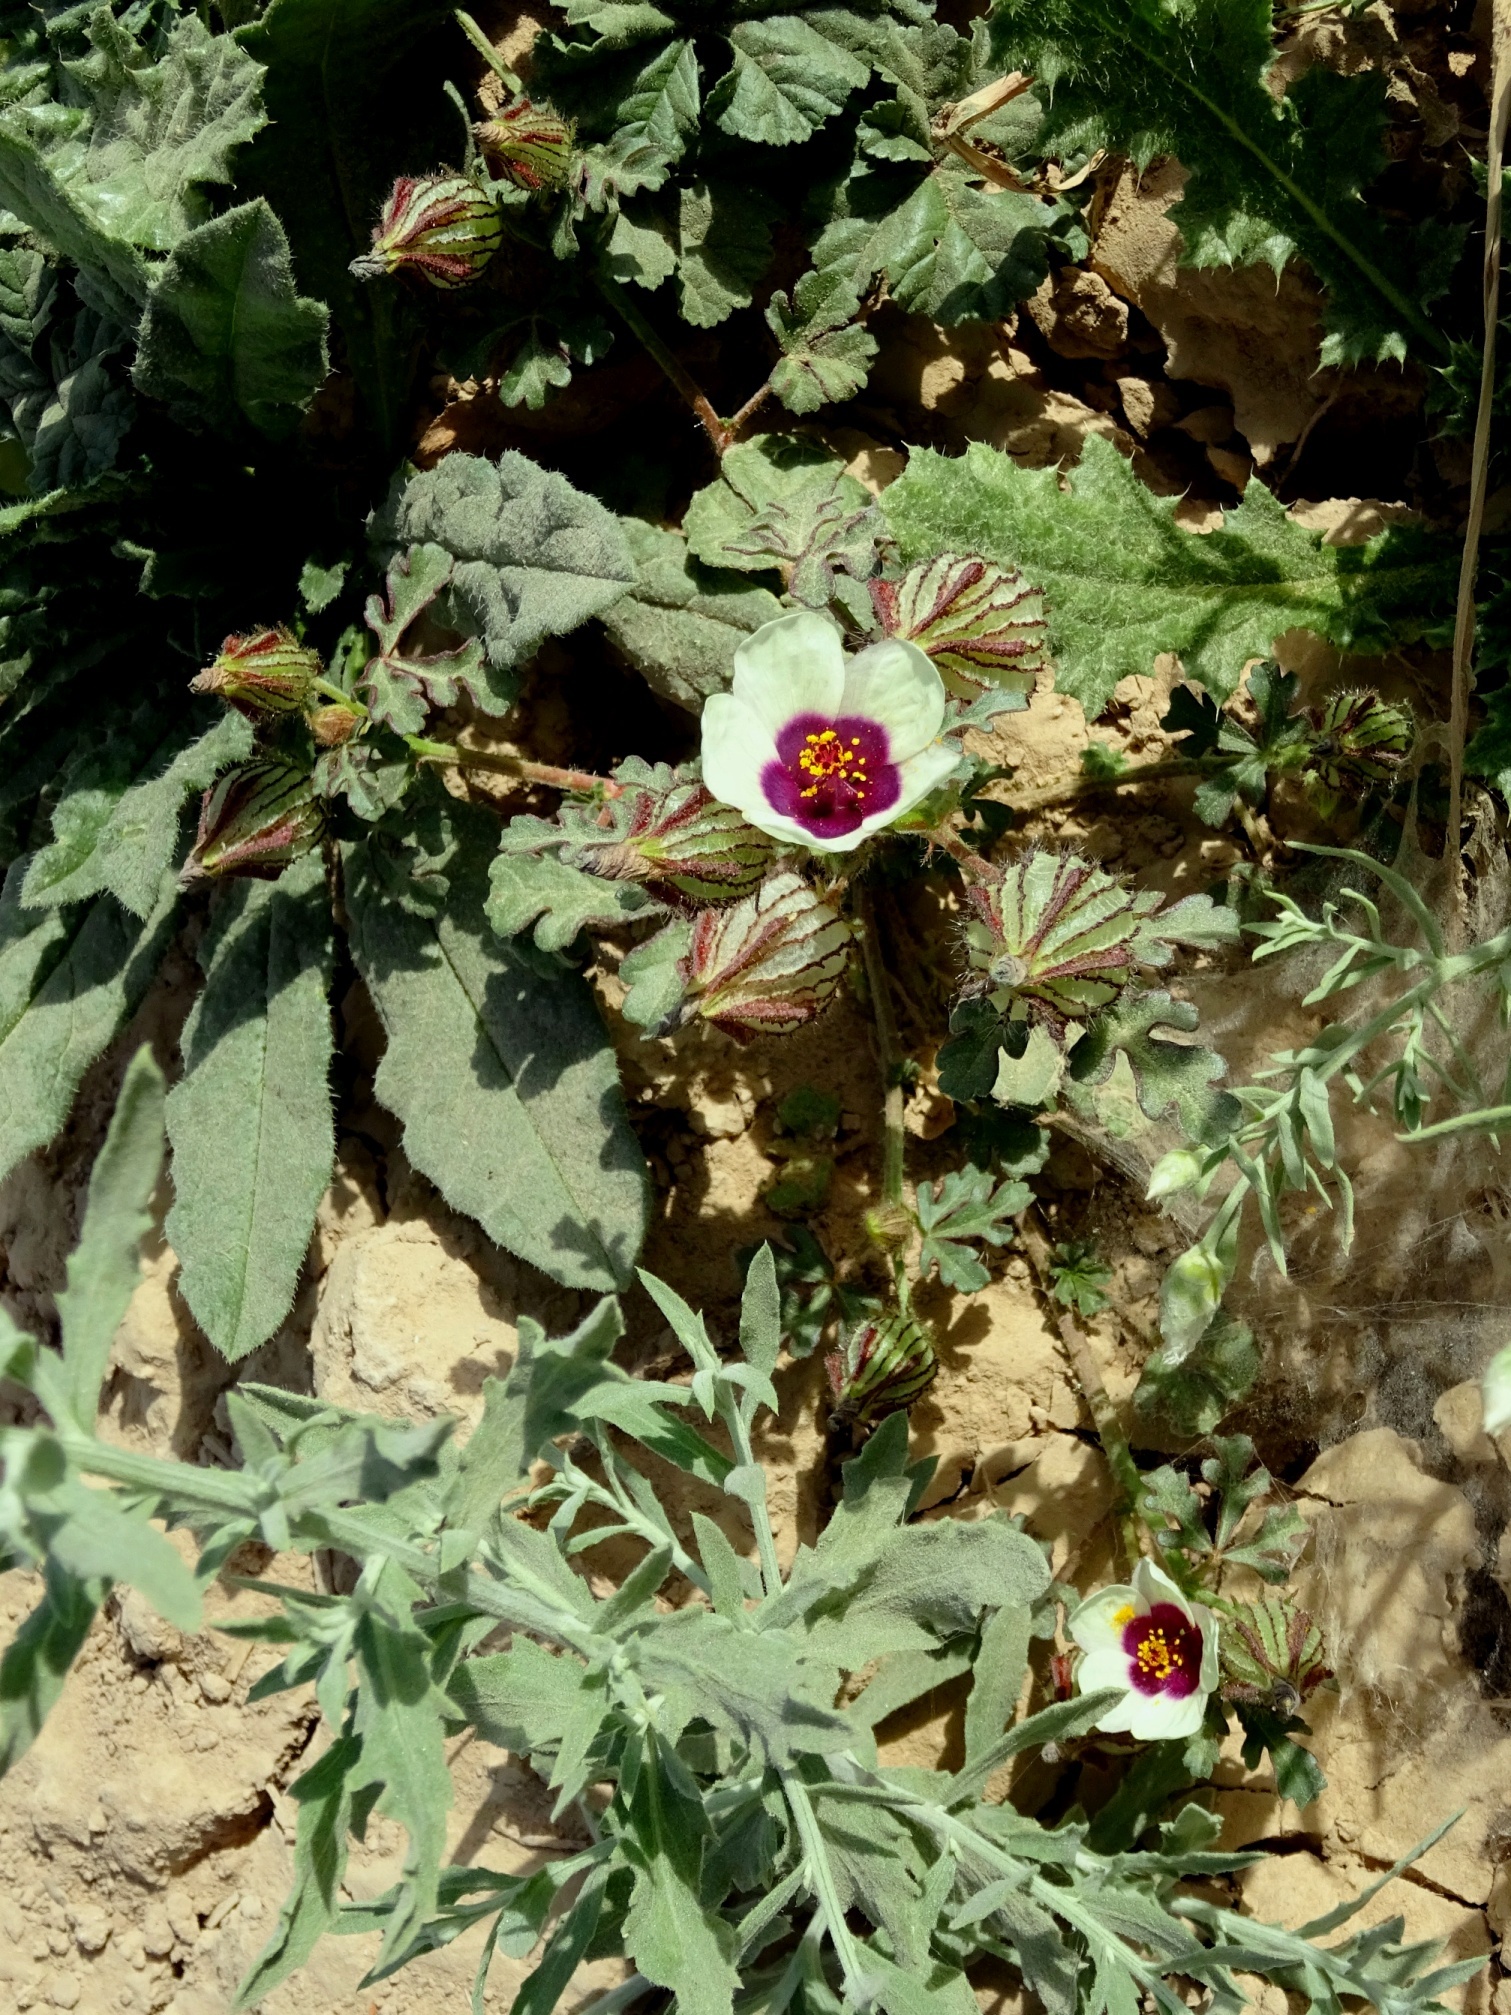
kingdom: Plantae
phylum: Tracheophyta
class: Magnoliopsida
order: Malvales
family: Malvaceae
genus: Hibiscus
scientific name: Hibiscus trionum
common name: Bladder ketmia
